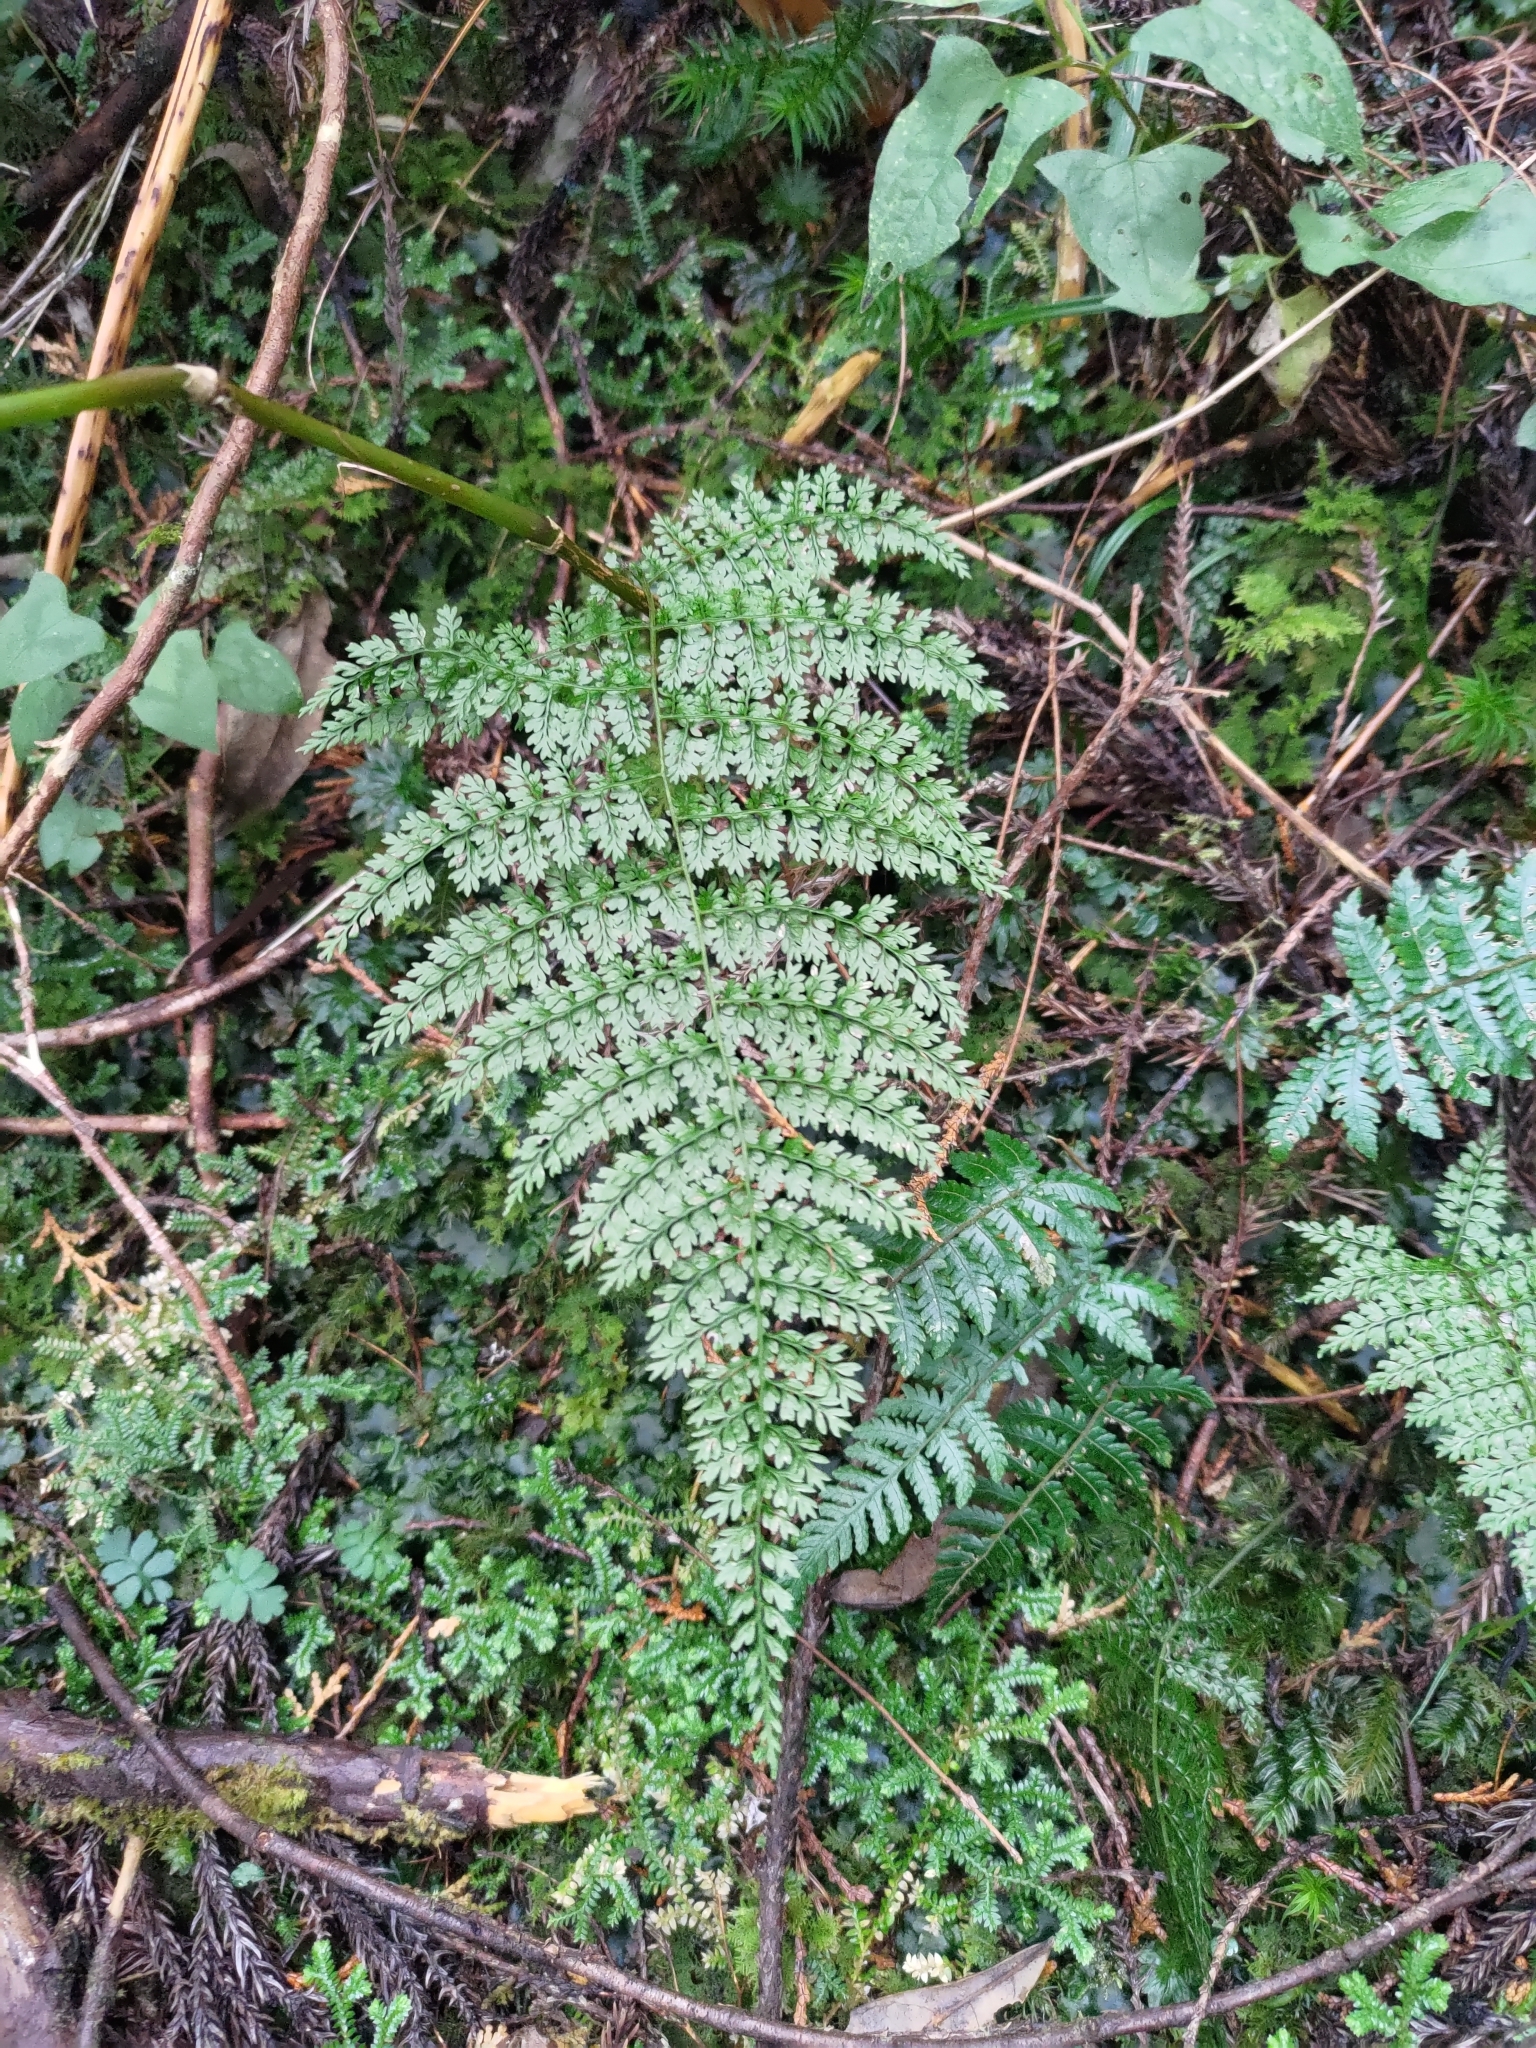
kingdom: Plantae
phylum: Tracheophyta
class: Polypodiopsida
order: Polypodiales
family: Dennstaedtiaceae
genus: Monachosorum
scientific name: Monachosorum henryi
